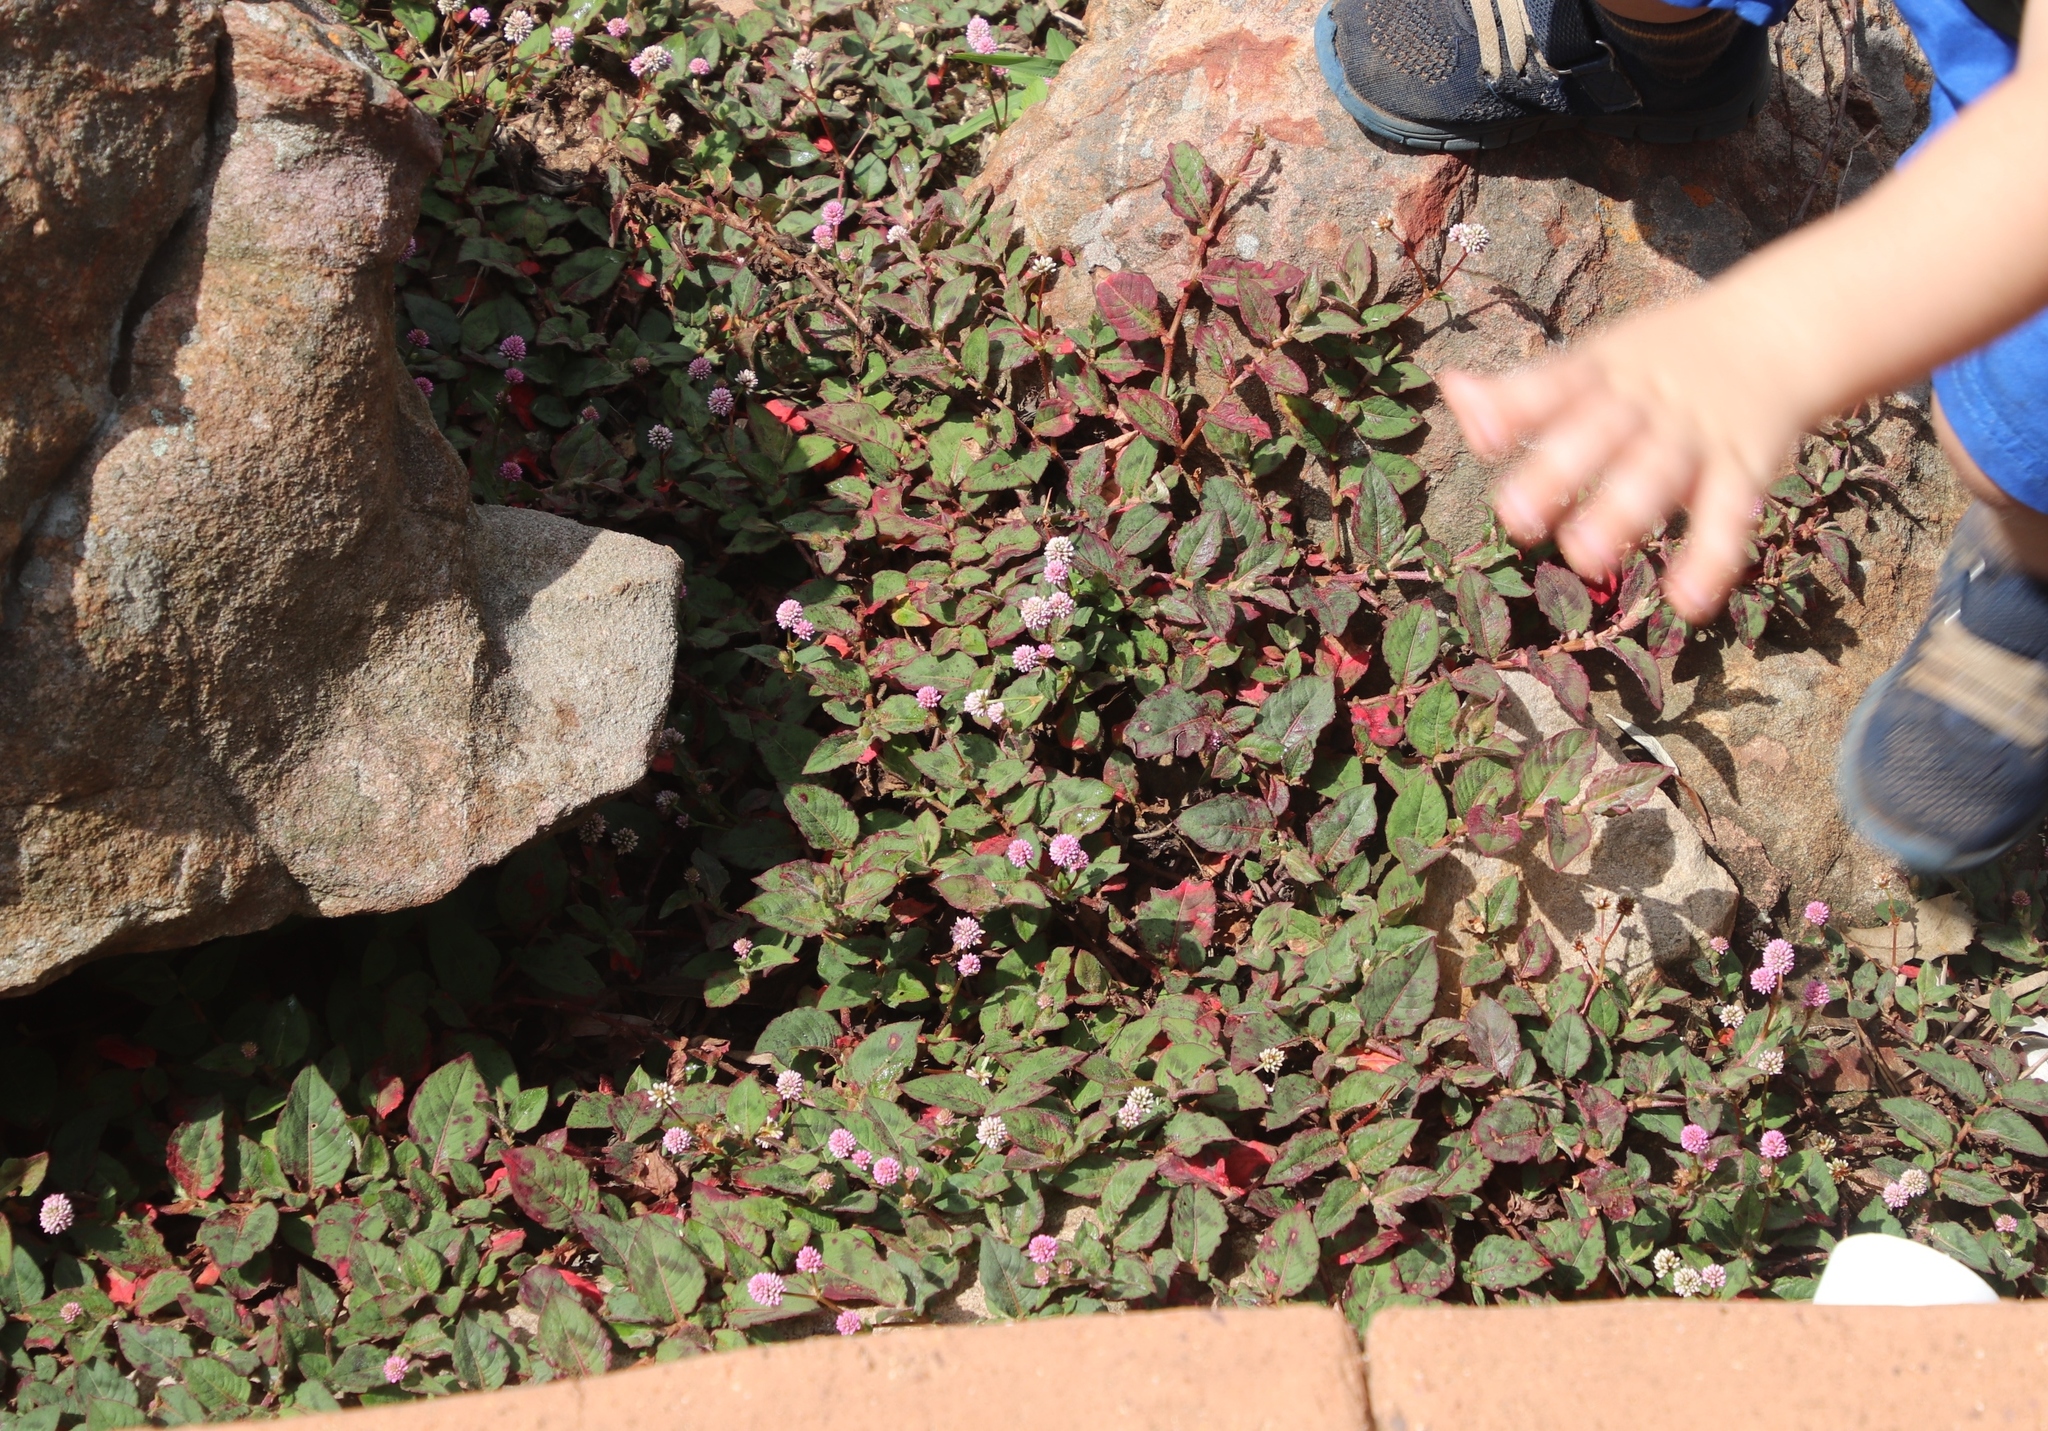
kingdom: Plantae
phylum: Tracheophyta
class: Magnoliopsida
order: Caryophyllales
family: Polygonaceae
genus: Persicaria
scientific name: Persicaria capitata
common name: Pinkhead smartweed
